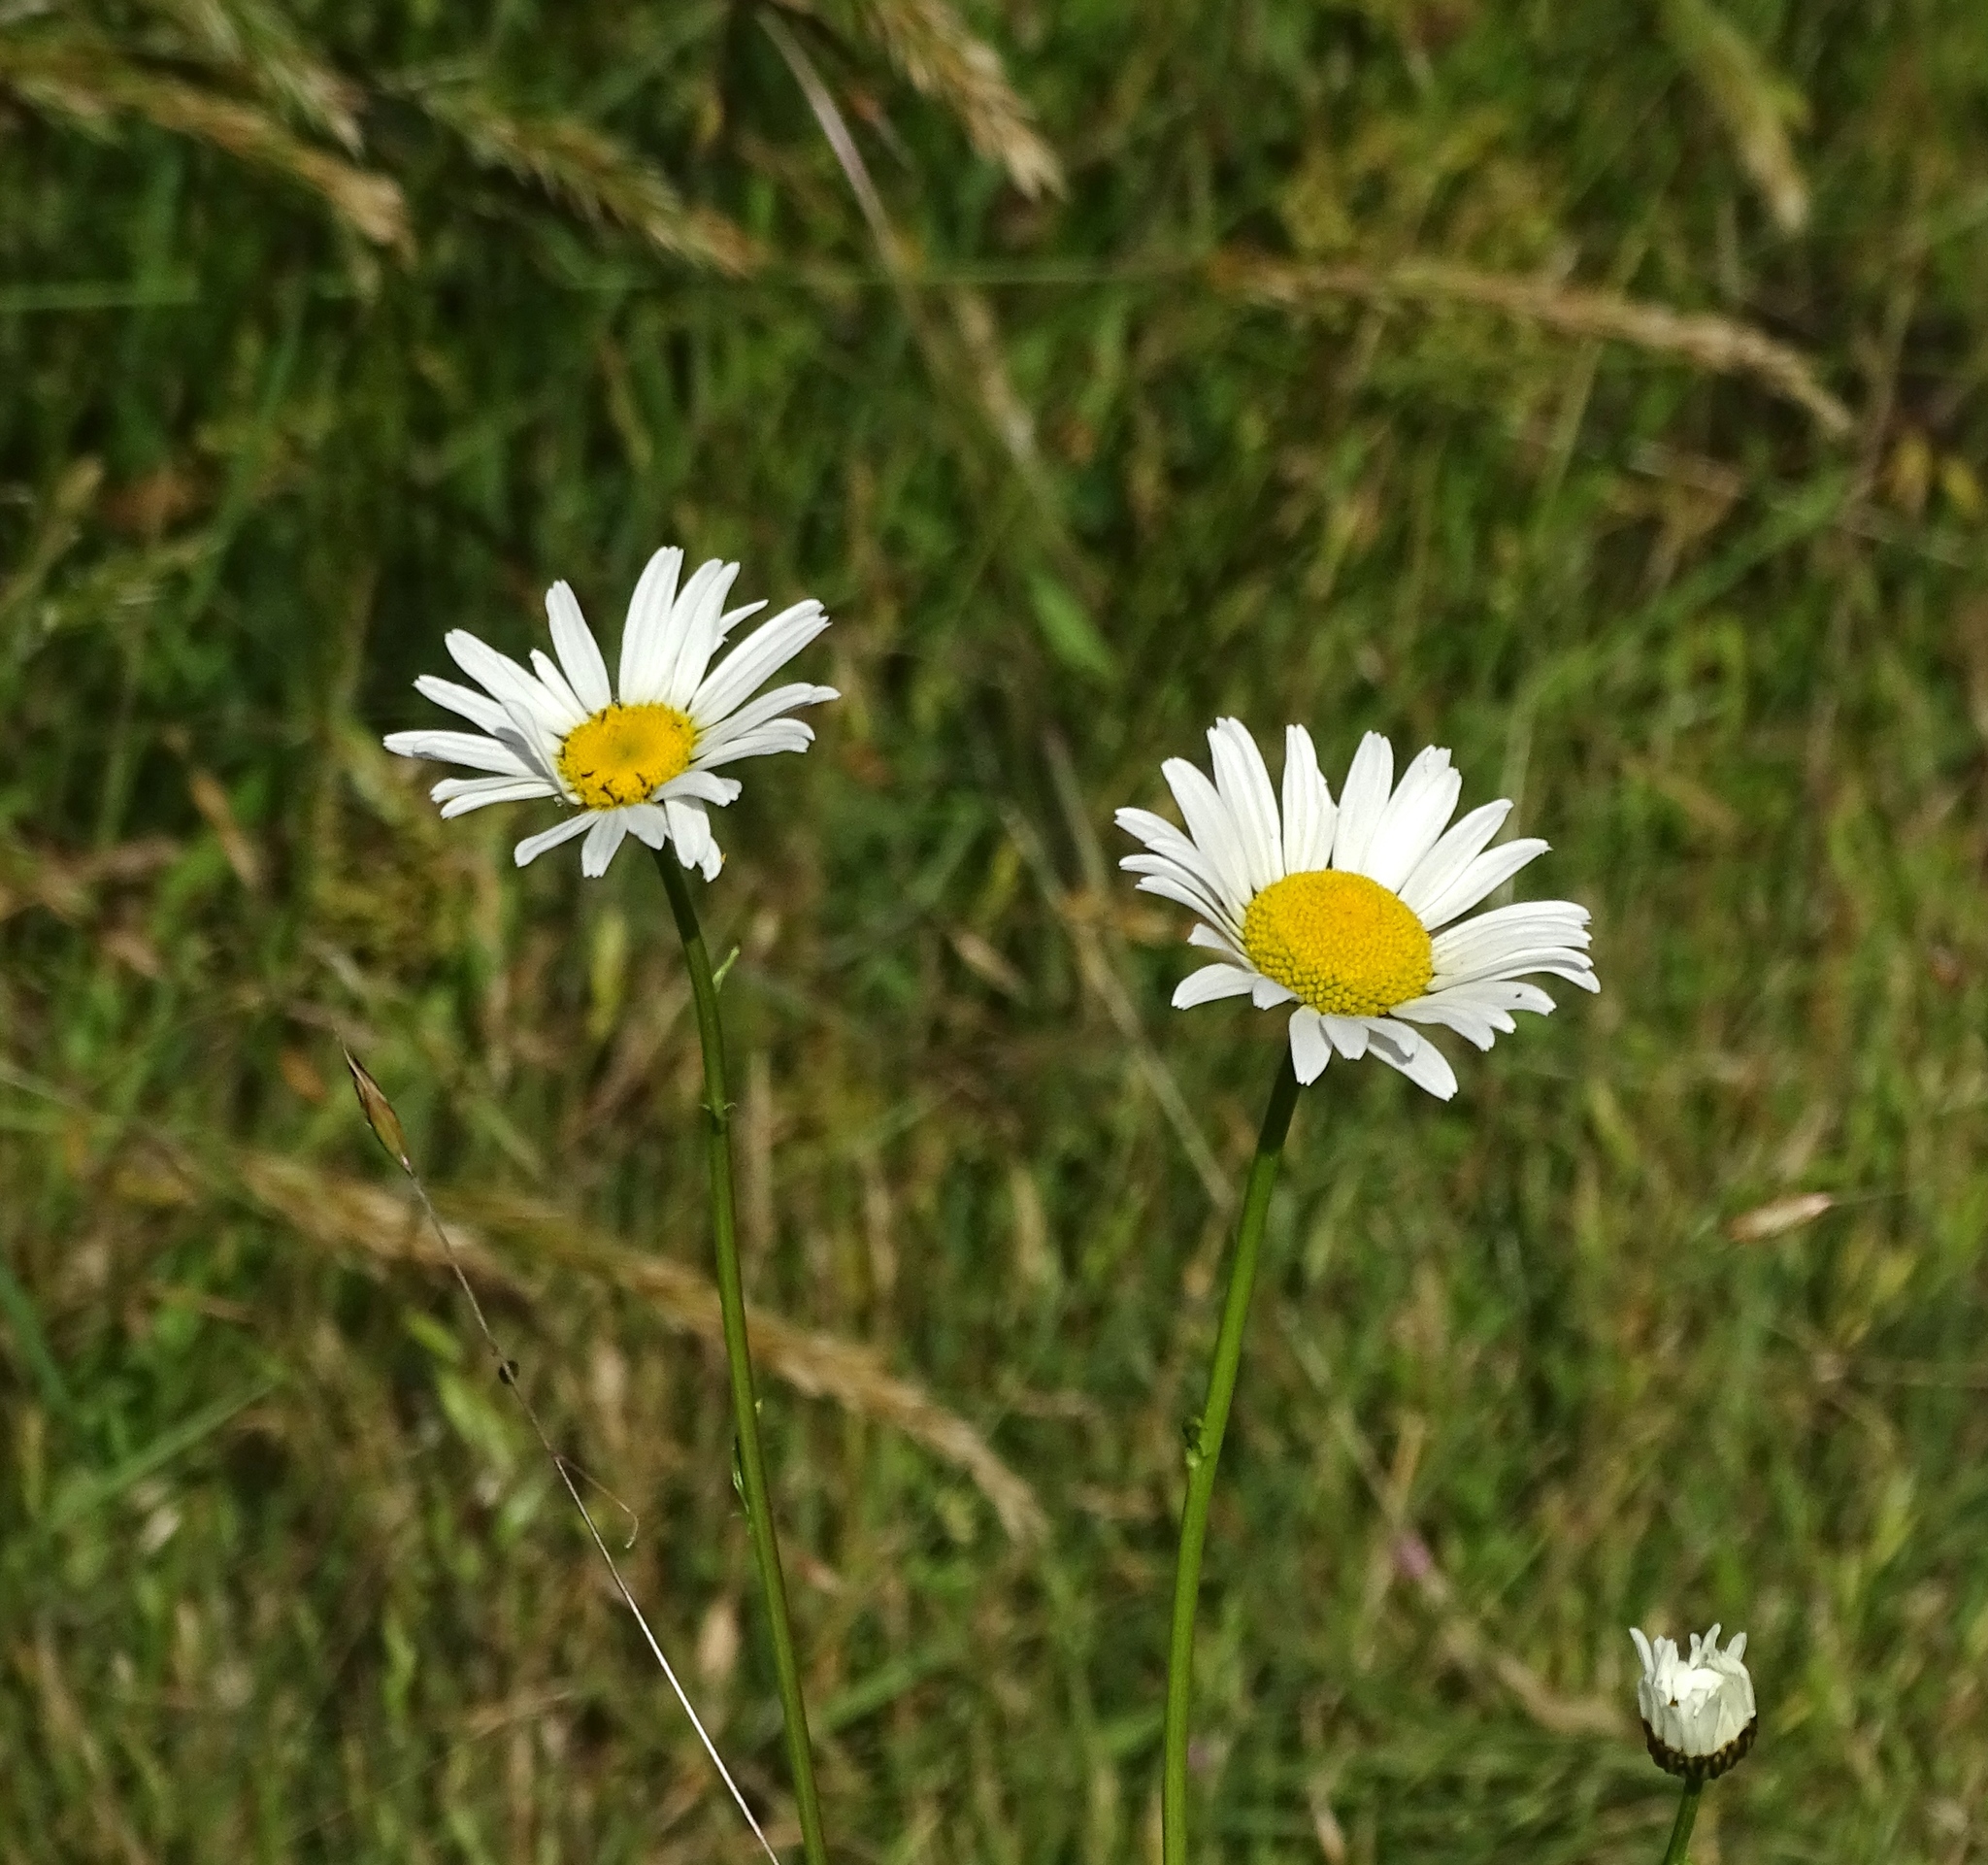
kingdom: Plantae
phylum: Tracheophyta
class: Magnoliopsida
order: Asterales
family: Asteraceae
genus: Leucanthemum
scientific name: Leucanthemum vulgare
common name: Oxeye daisy
